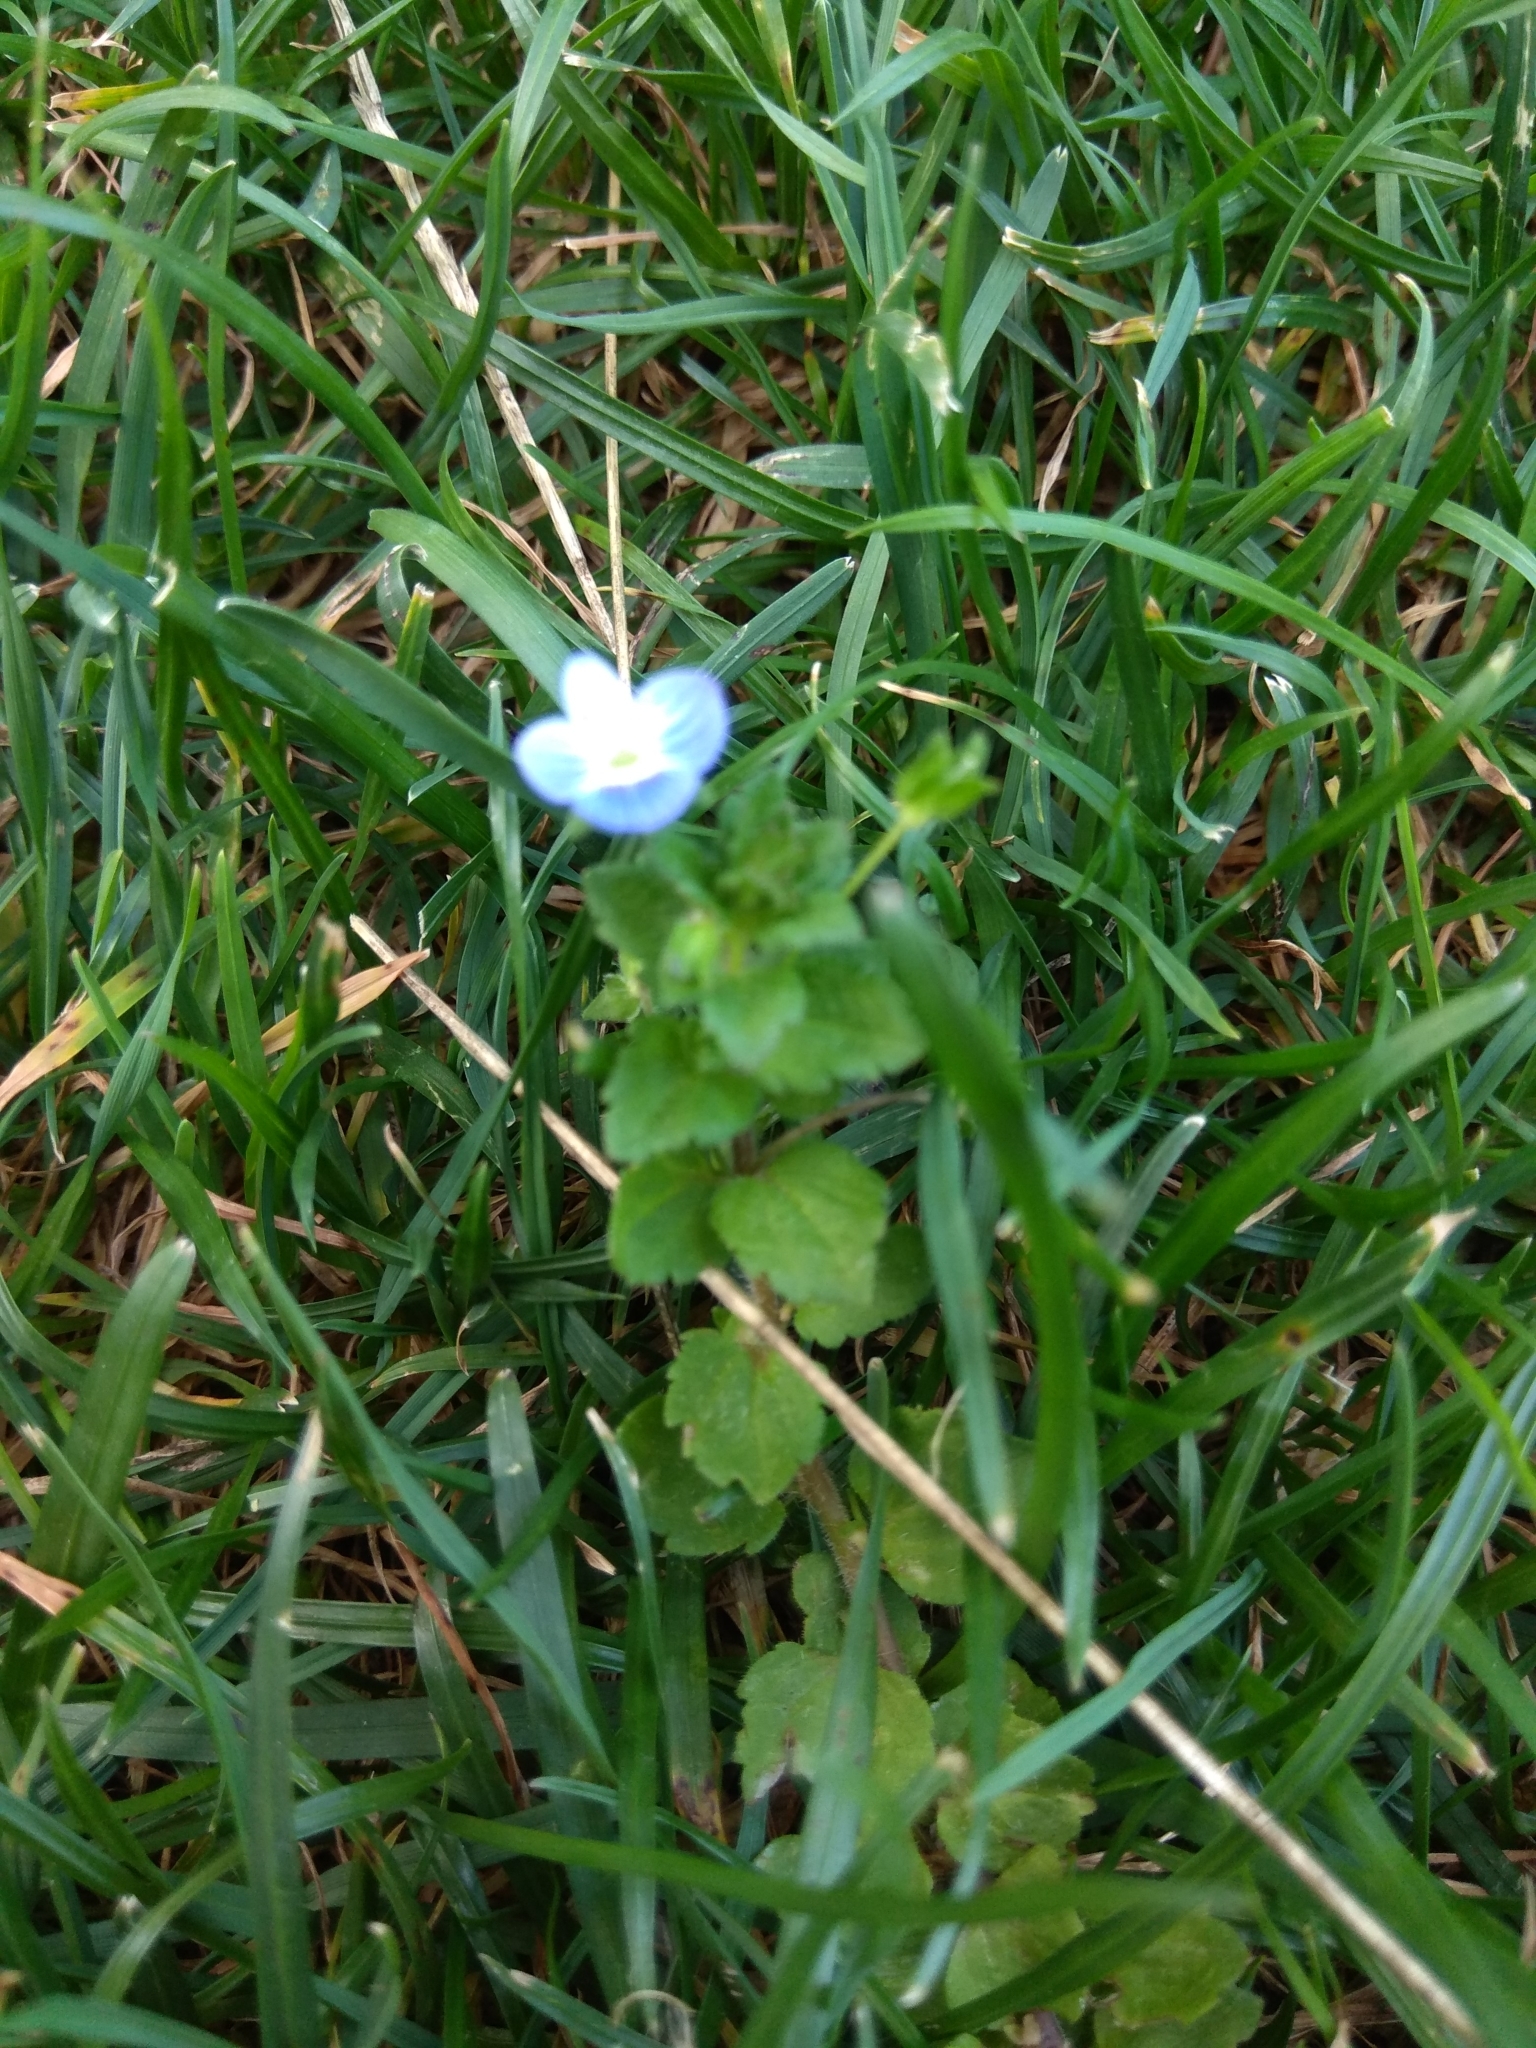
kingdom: Plantae
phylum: Tracheophyta
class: Magnoliopsida
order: Lamiales
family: Plantaginaceae
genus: Veronica
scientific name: Veronica persica
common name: Common field-speedwell
